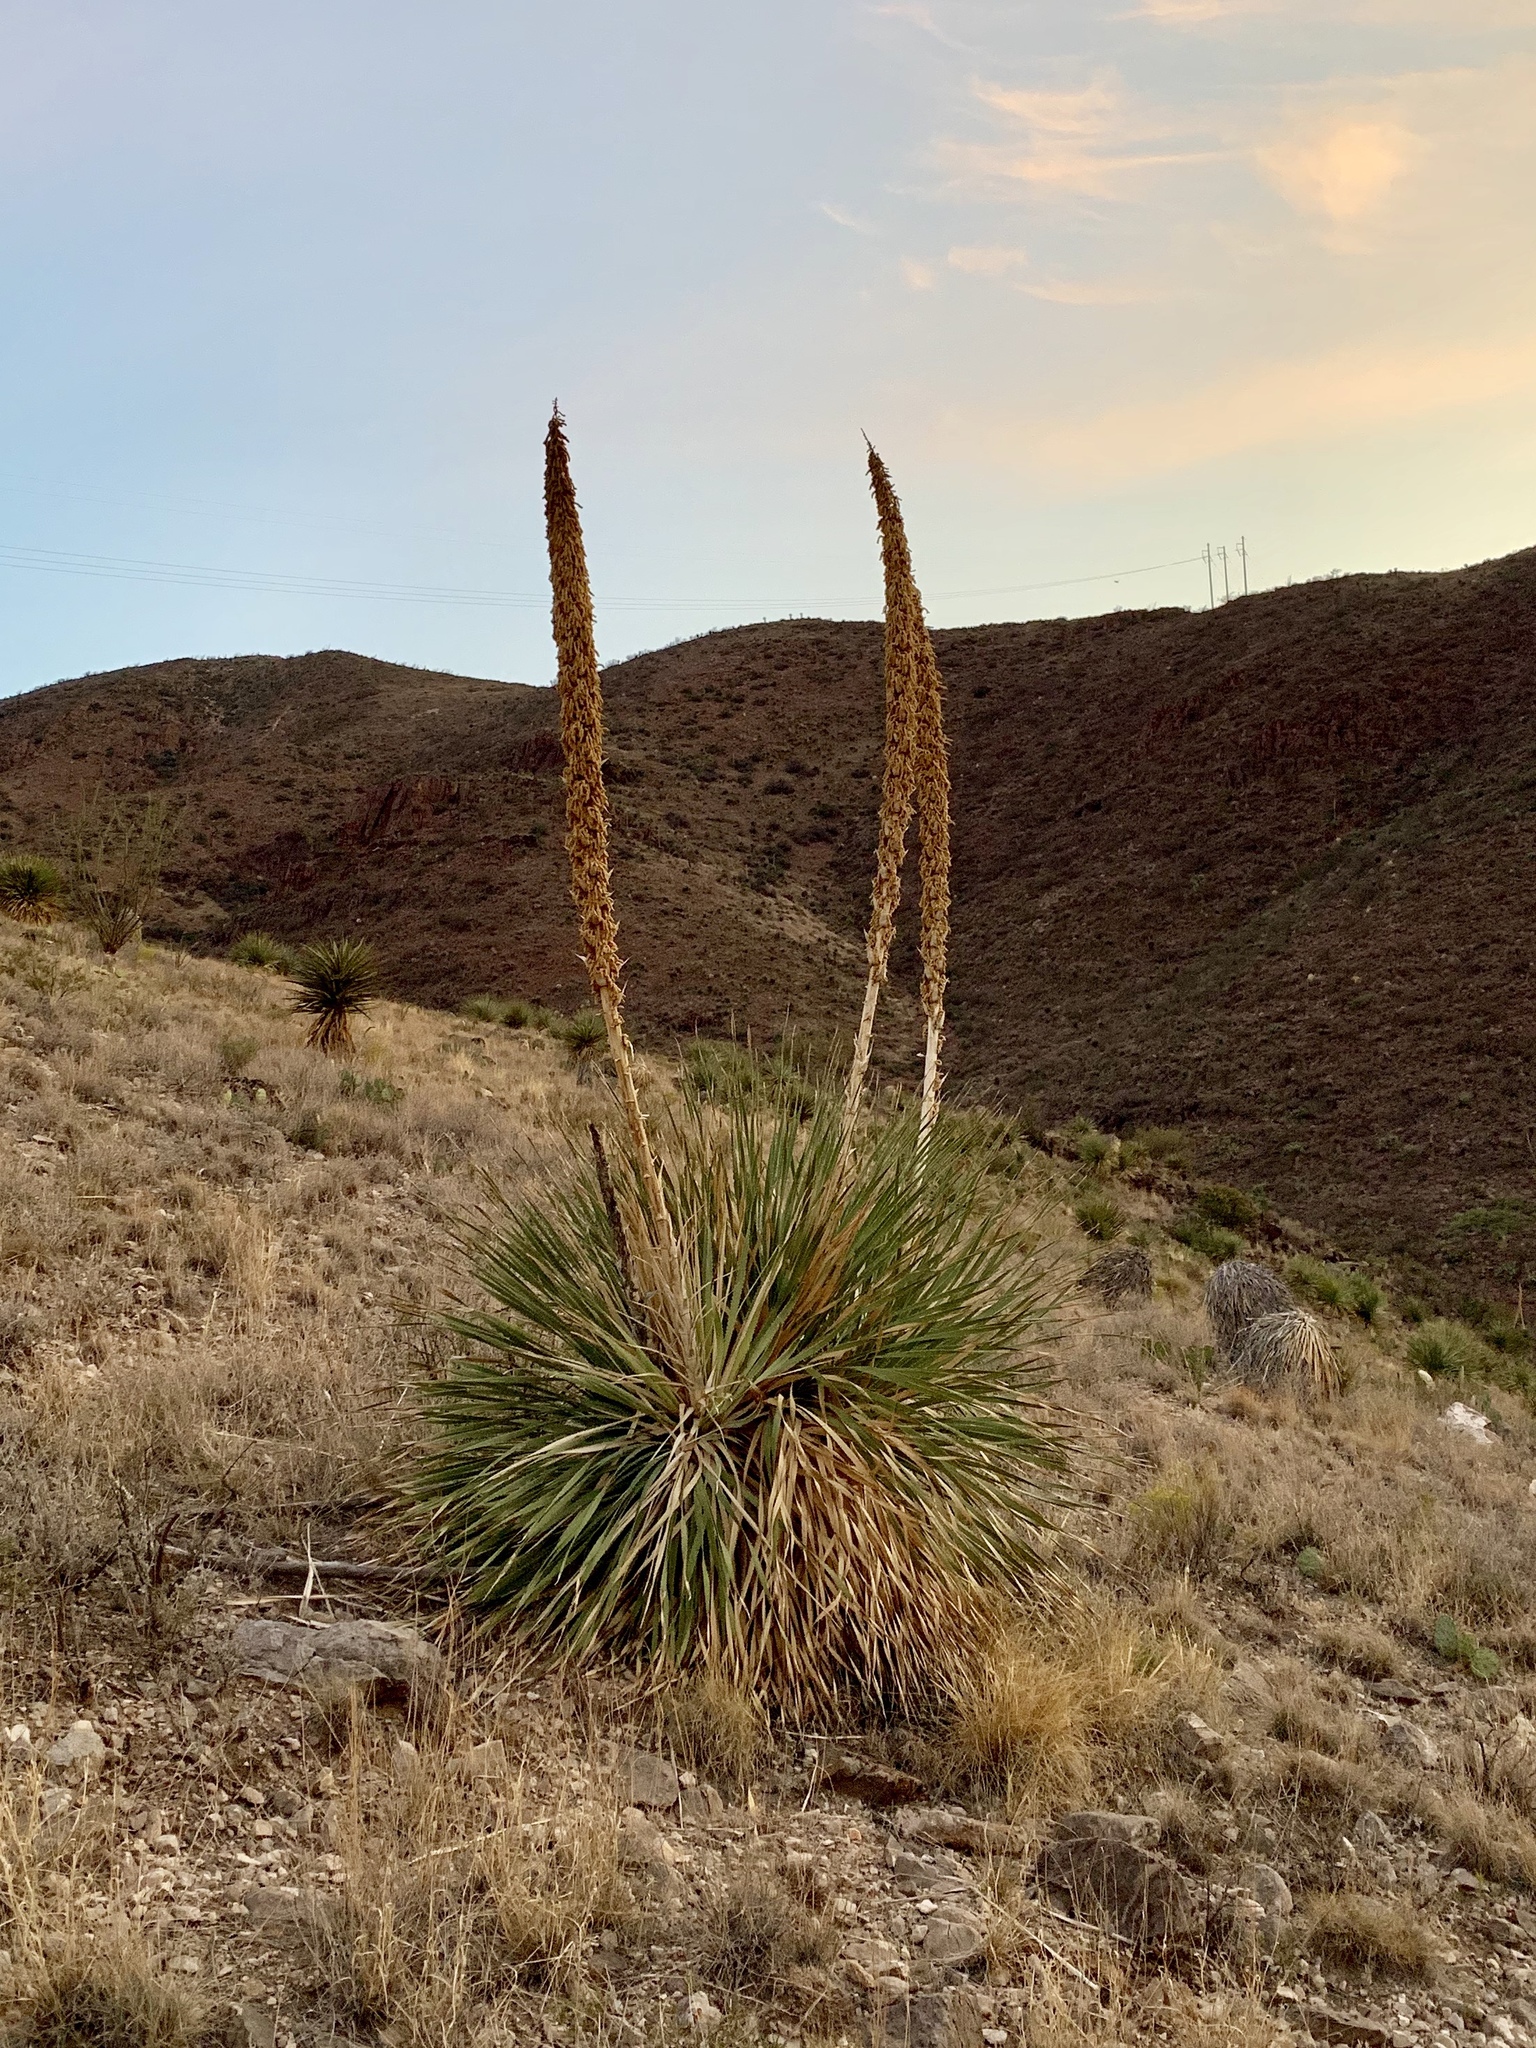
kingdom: Plantae
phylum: Tracheophyta
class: Liliopsida
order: Asparagales
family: Asparagaceae
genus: Dasylirion
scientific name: Dasylirion wheeleri
